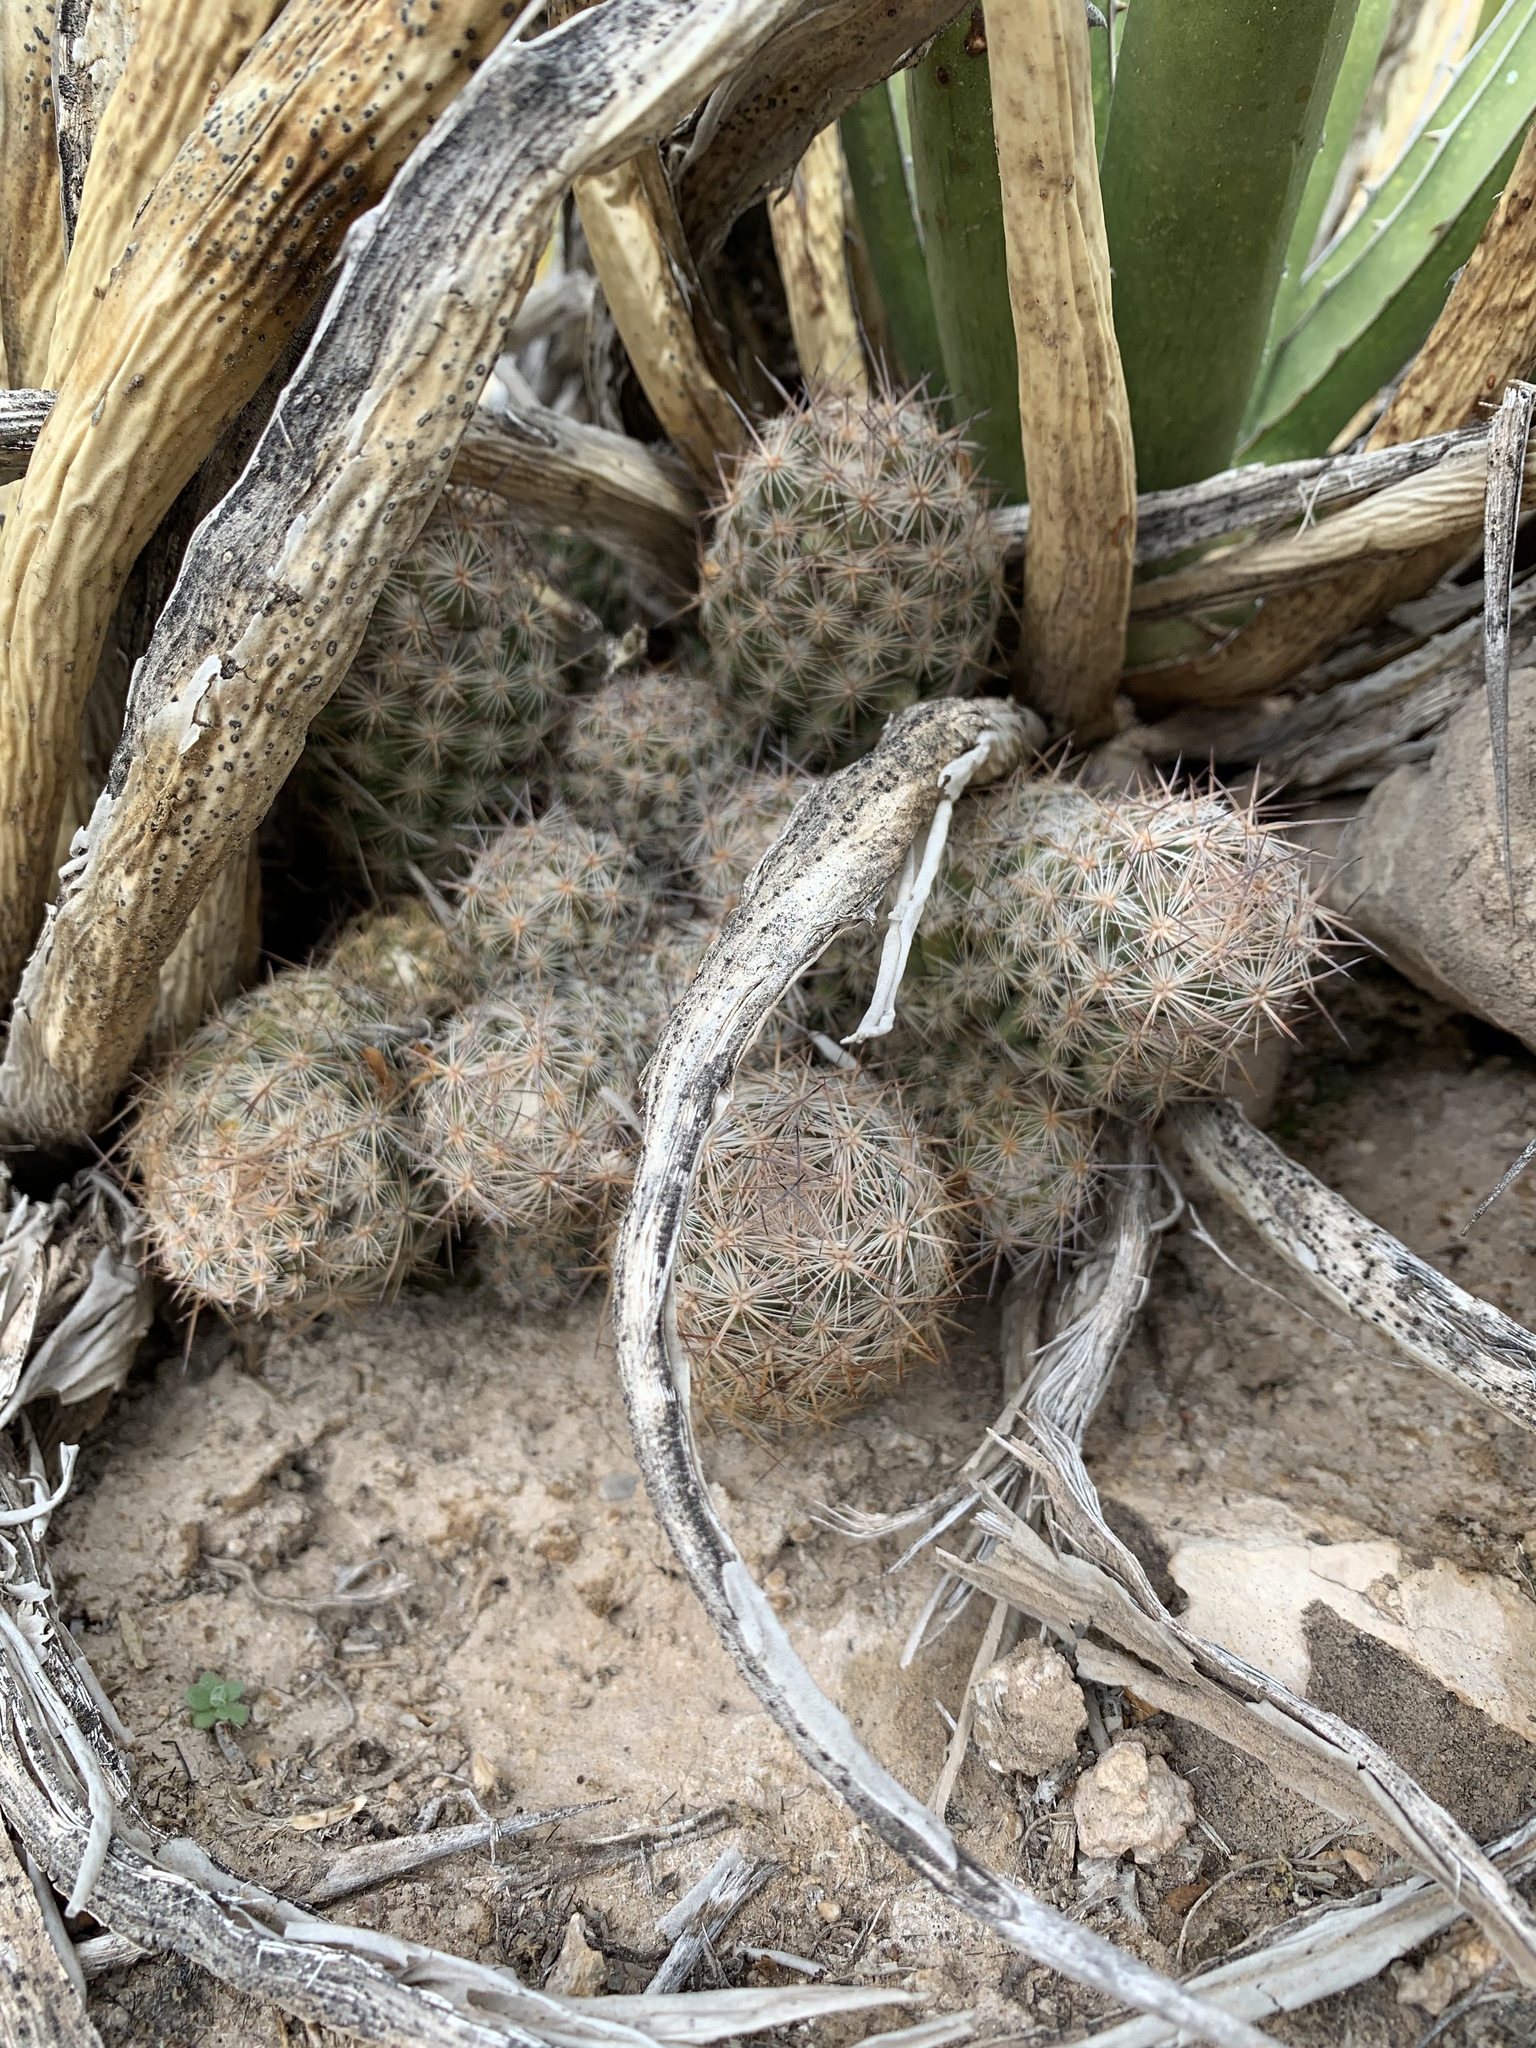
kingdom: Plantae
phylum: Tracheophyta
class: Magnoliopsida
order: Caryophyllales
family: Cactaceae
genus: Pelecyphora
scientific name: Pelecyphora tuberculosa
